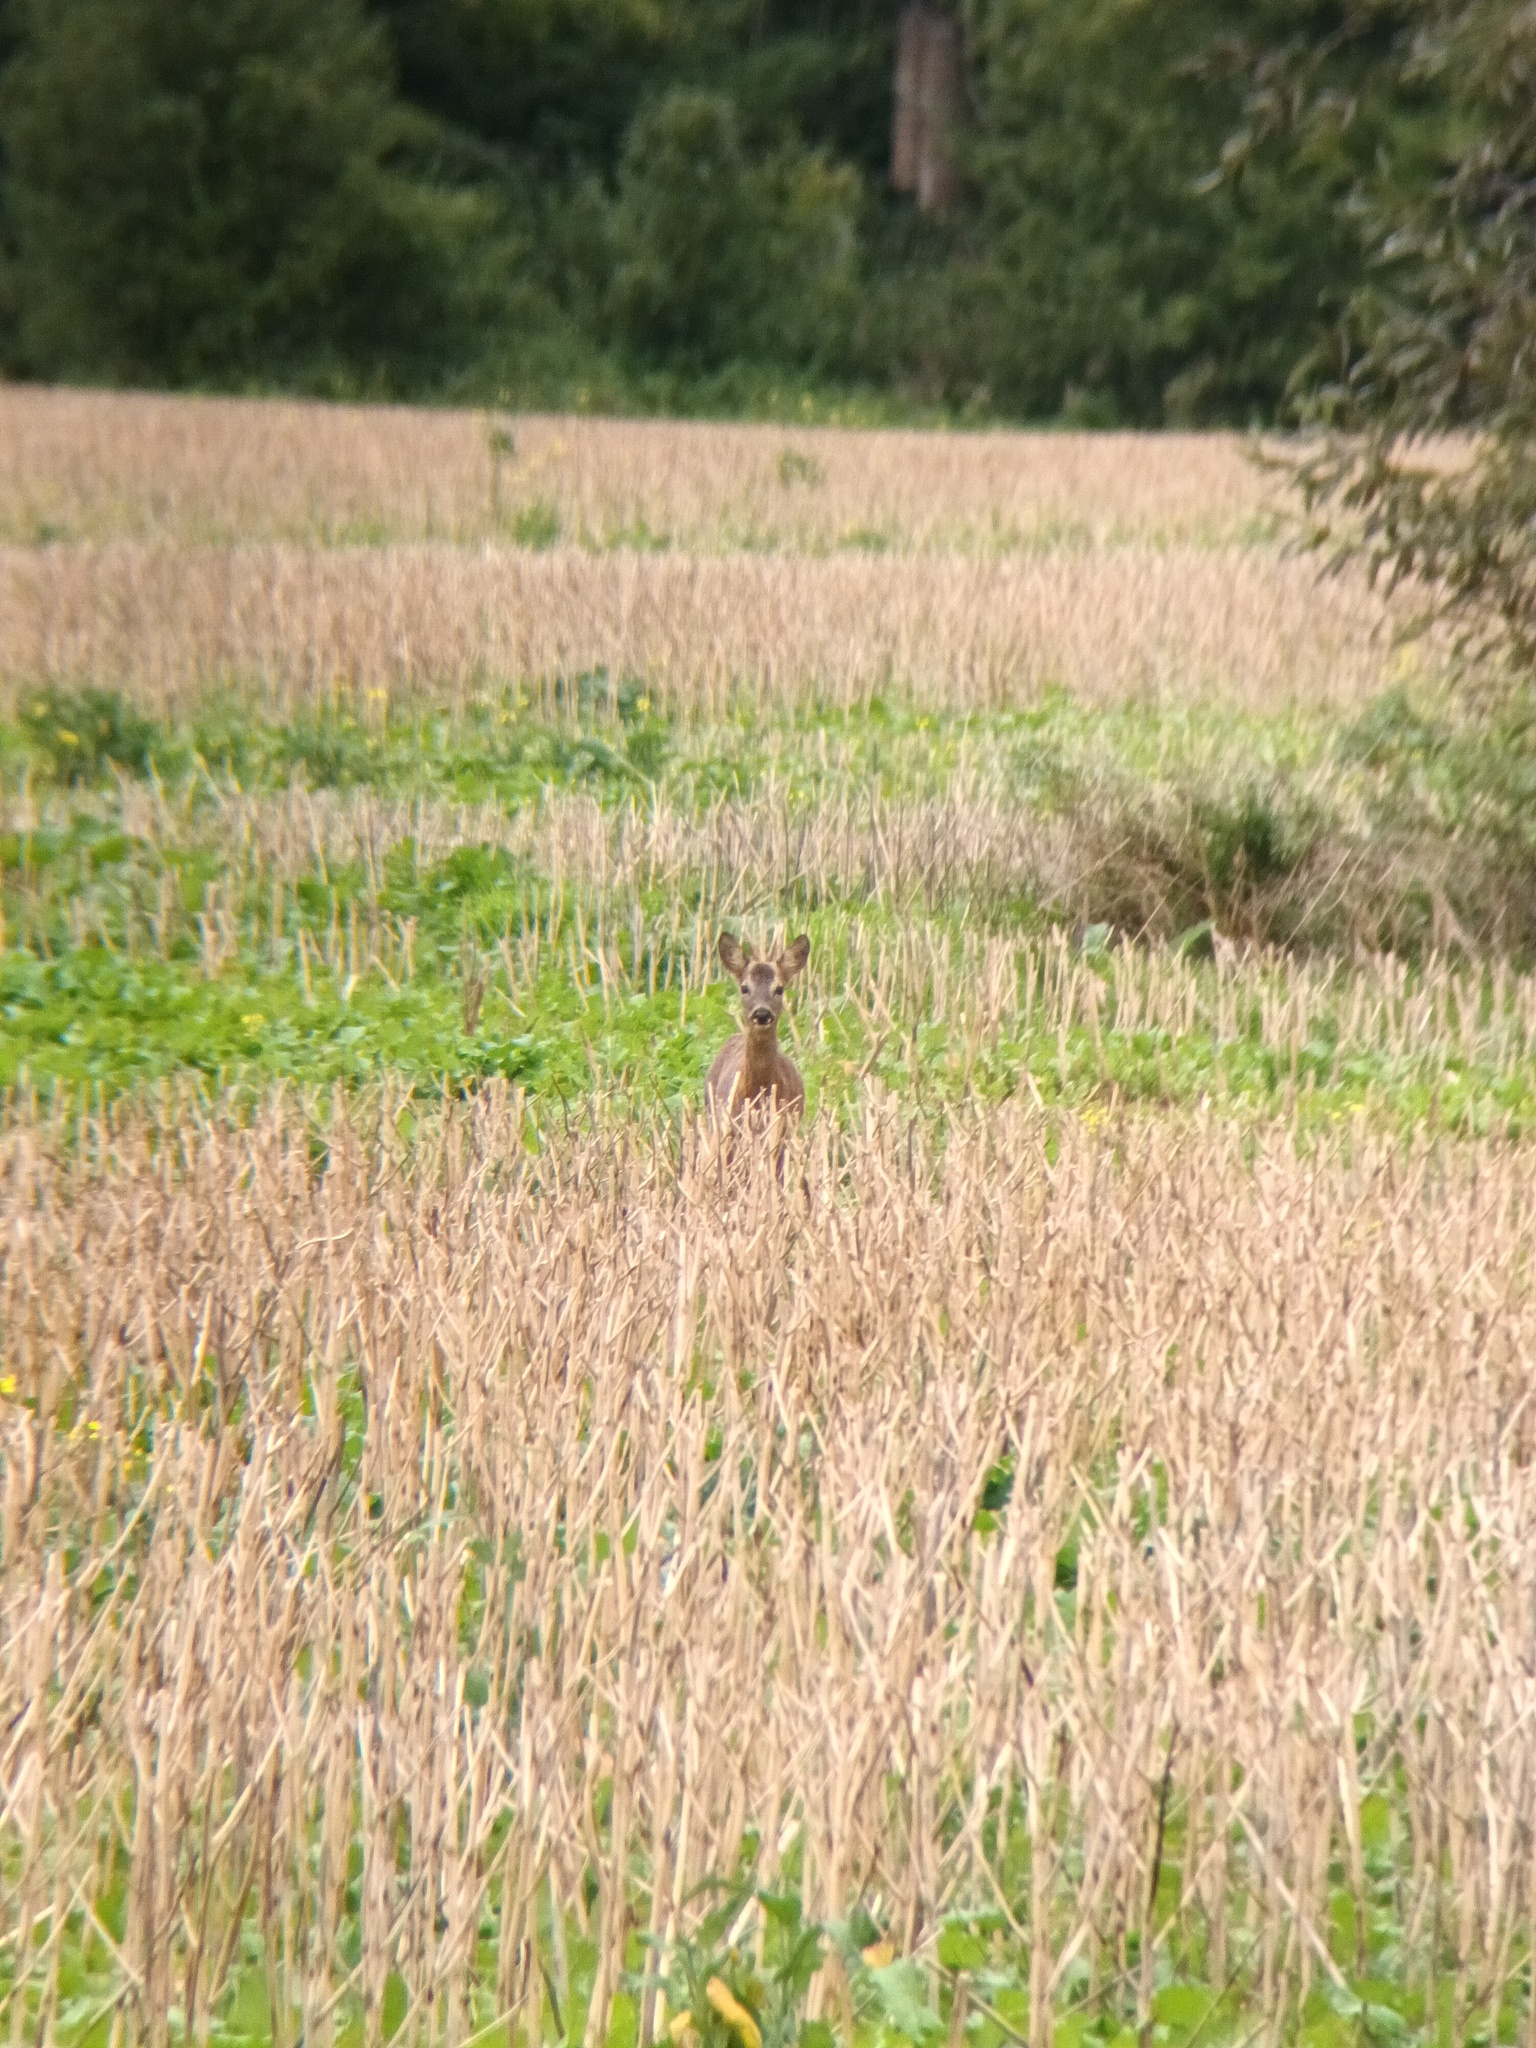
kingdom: Animalia
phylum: Chordata
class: Mammalia
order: Artiodactyla
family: Cervidae
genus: Capreolus
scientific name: Capreolus capreolus
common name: Western roe deer
